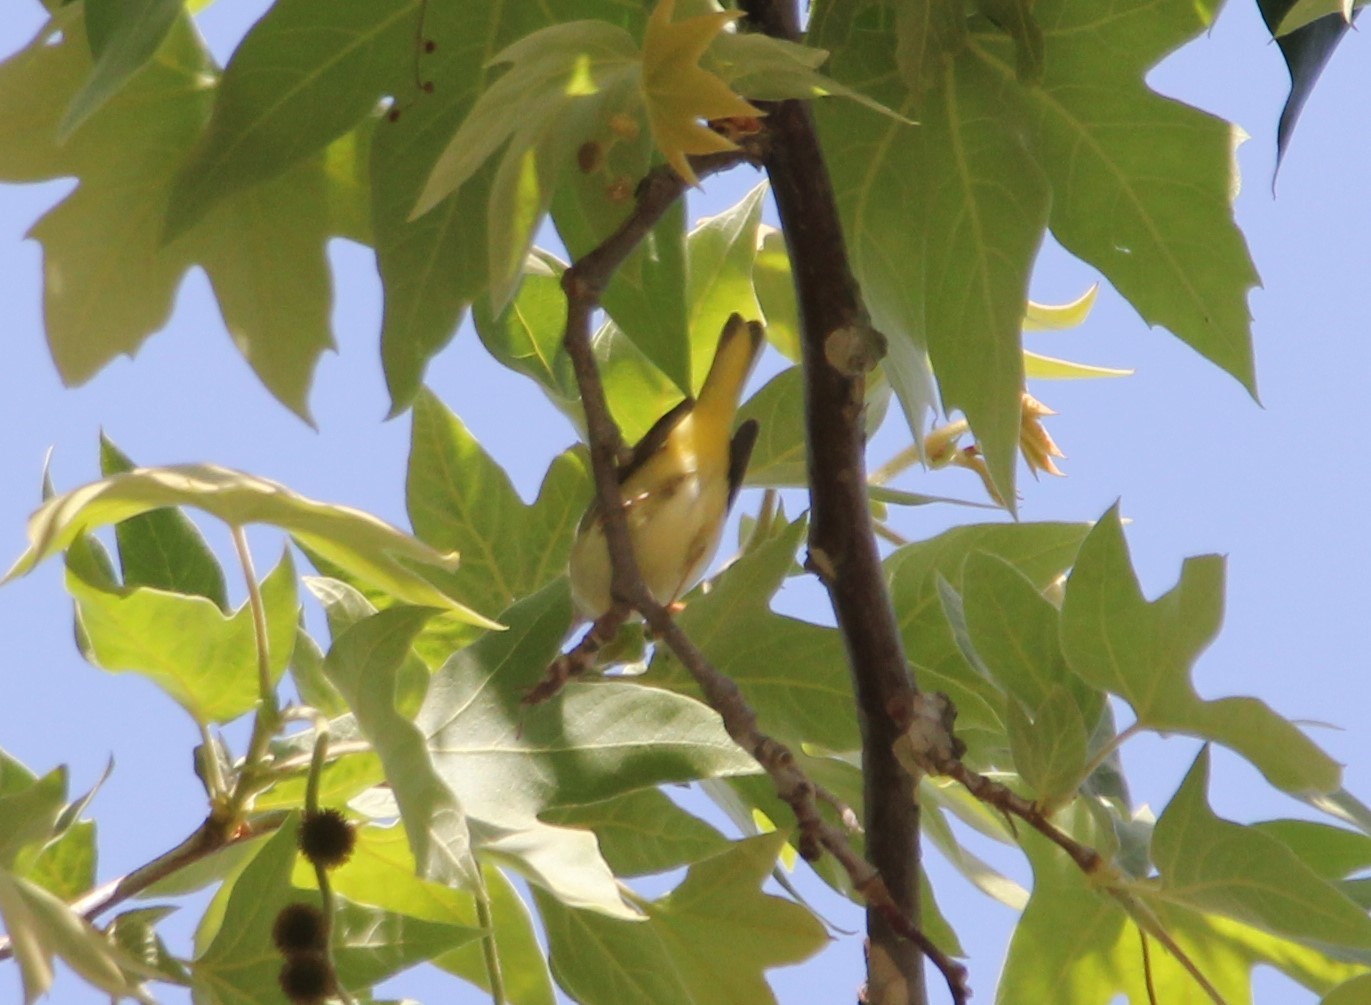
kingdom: Animalia
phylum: Chordata
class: Aves
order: Passeriformes
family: Parulidae
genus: Setophaga
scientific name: Setophaga petechia
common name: Yellow warbler
